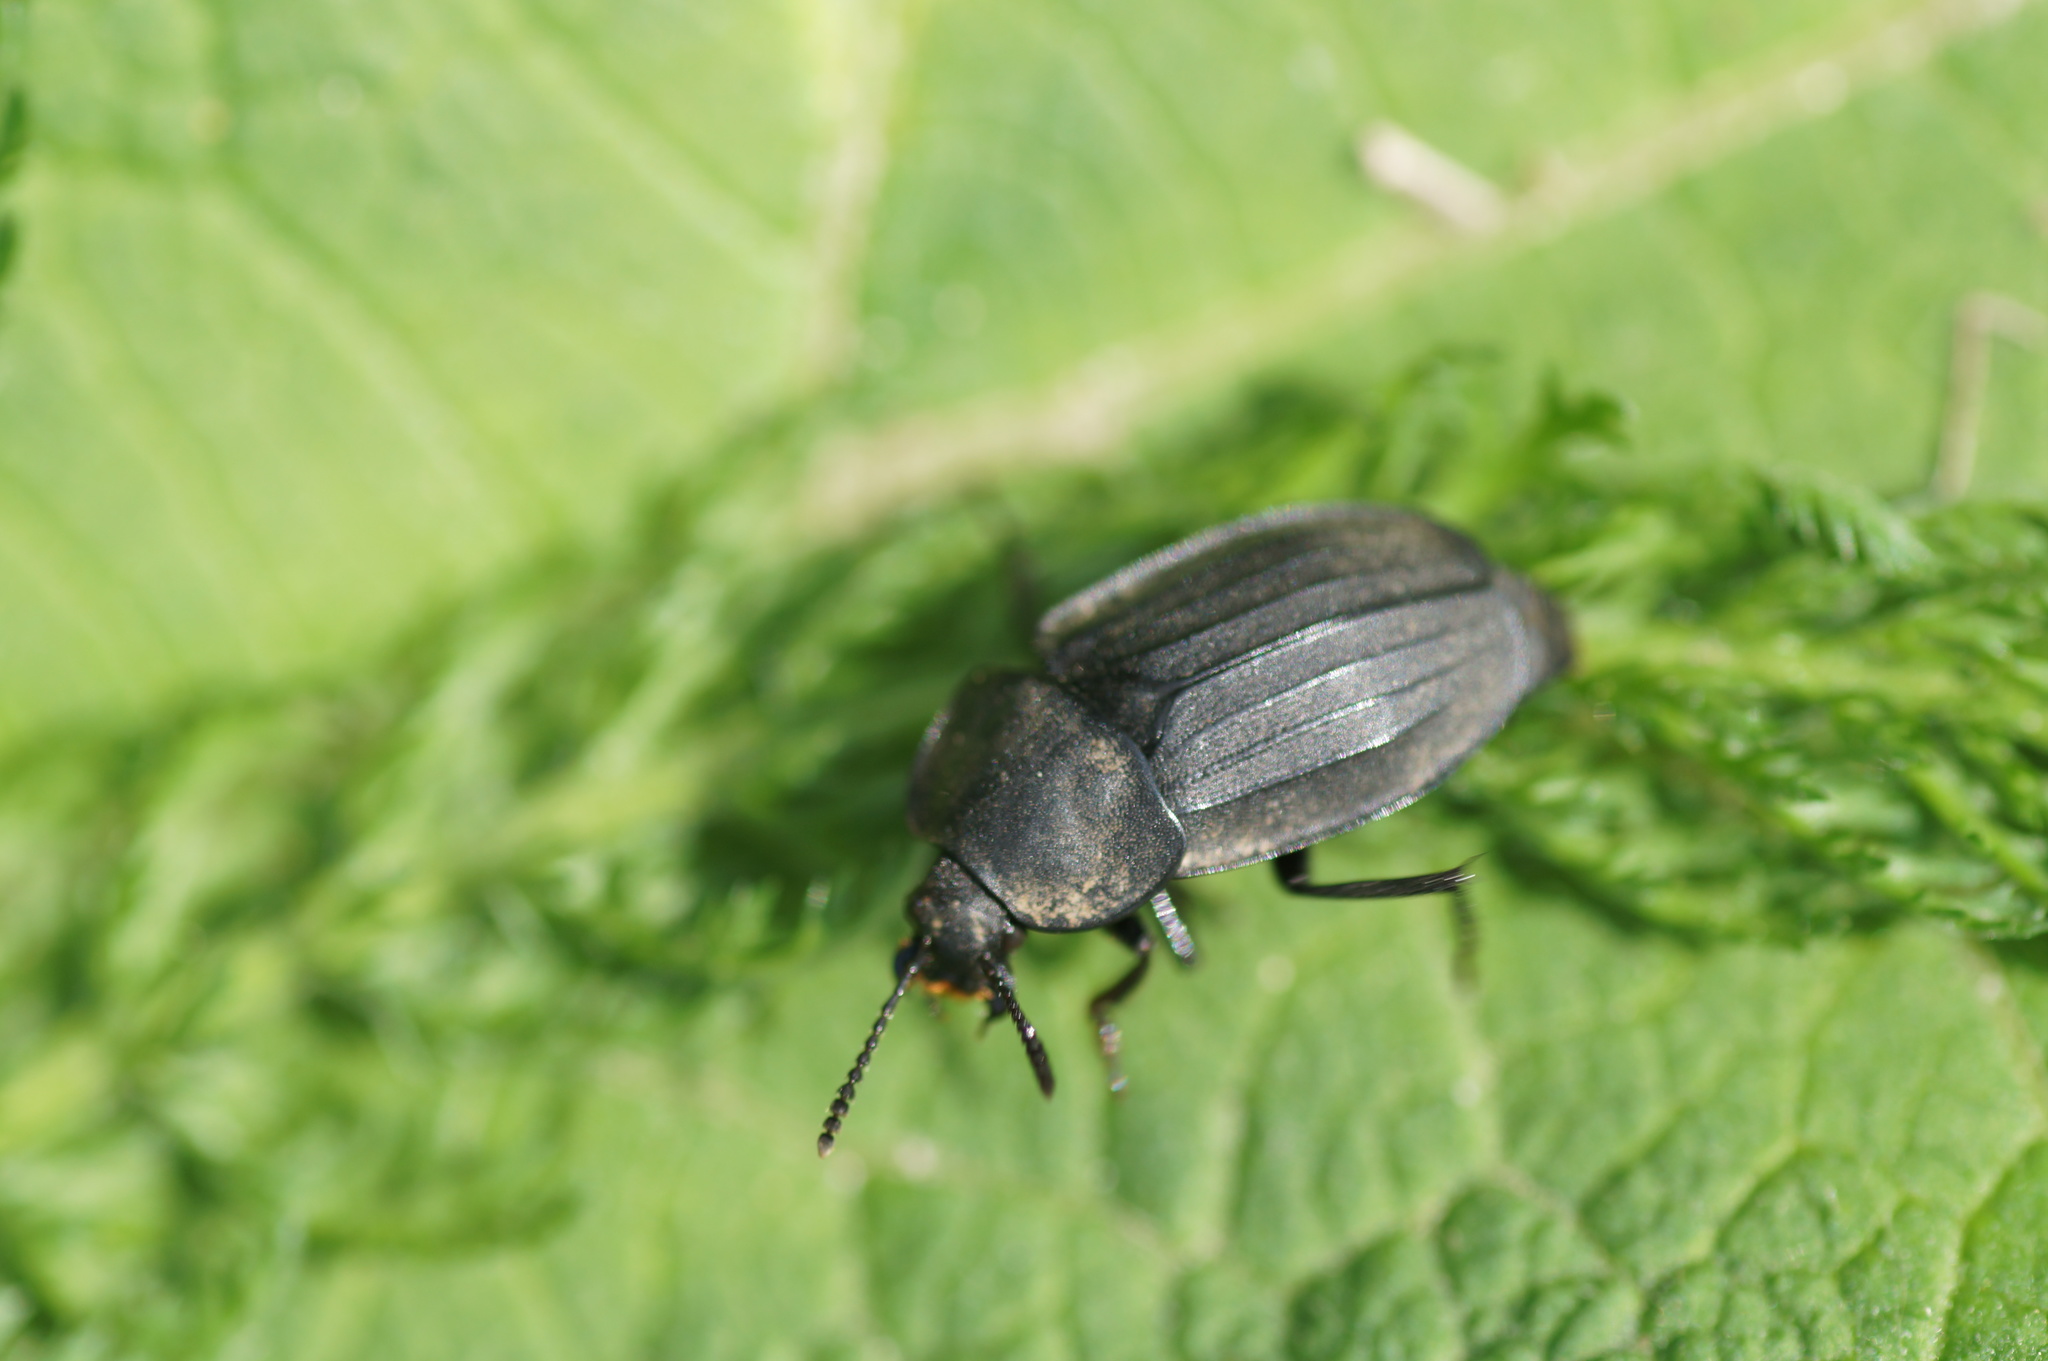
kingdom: Animalia
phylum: Arthropoda
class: Insecta
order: Coleoptera
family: Staphylinidae
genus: Silpha
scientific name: Silpha tristis
